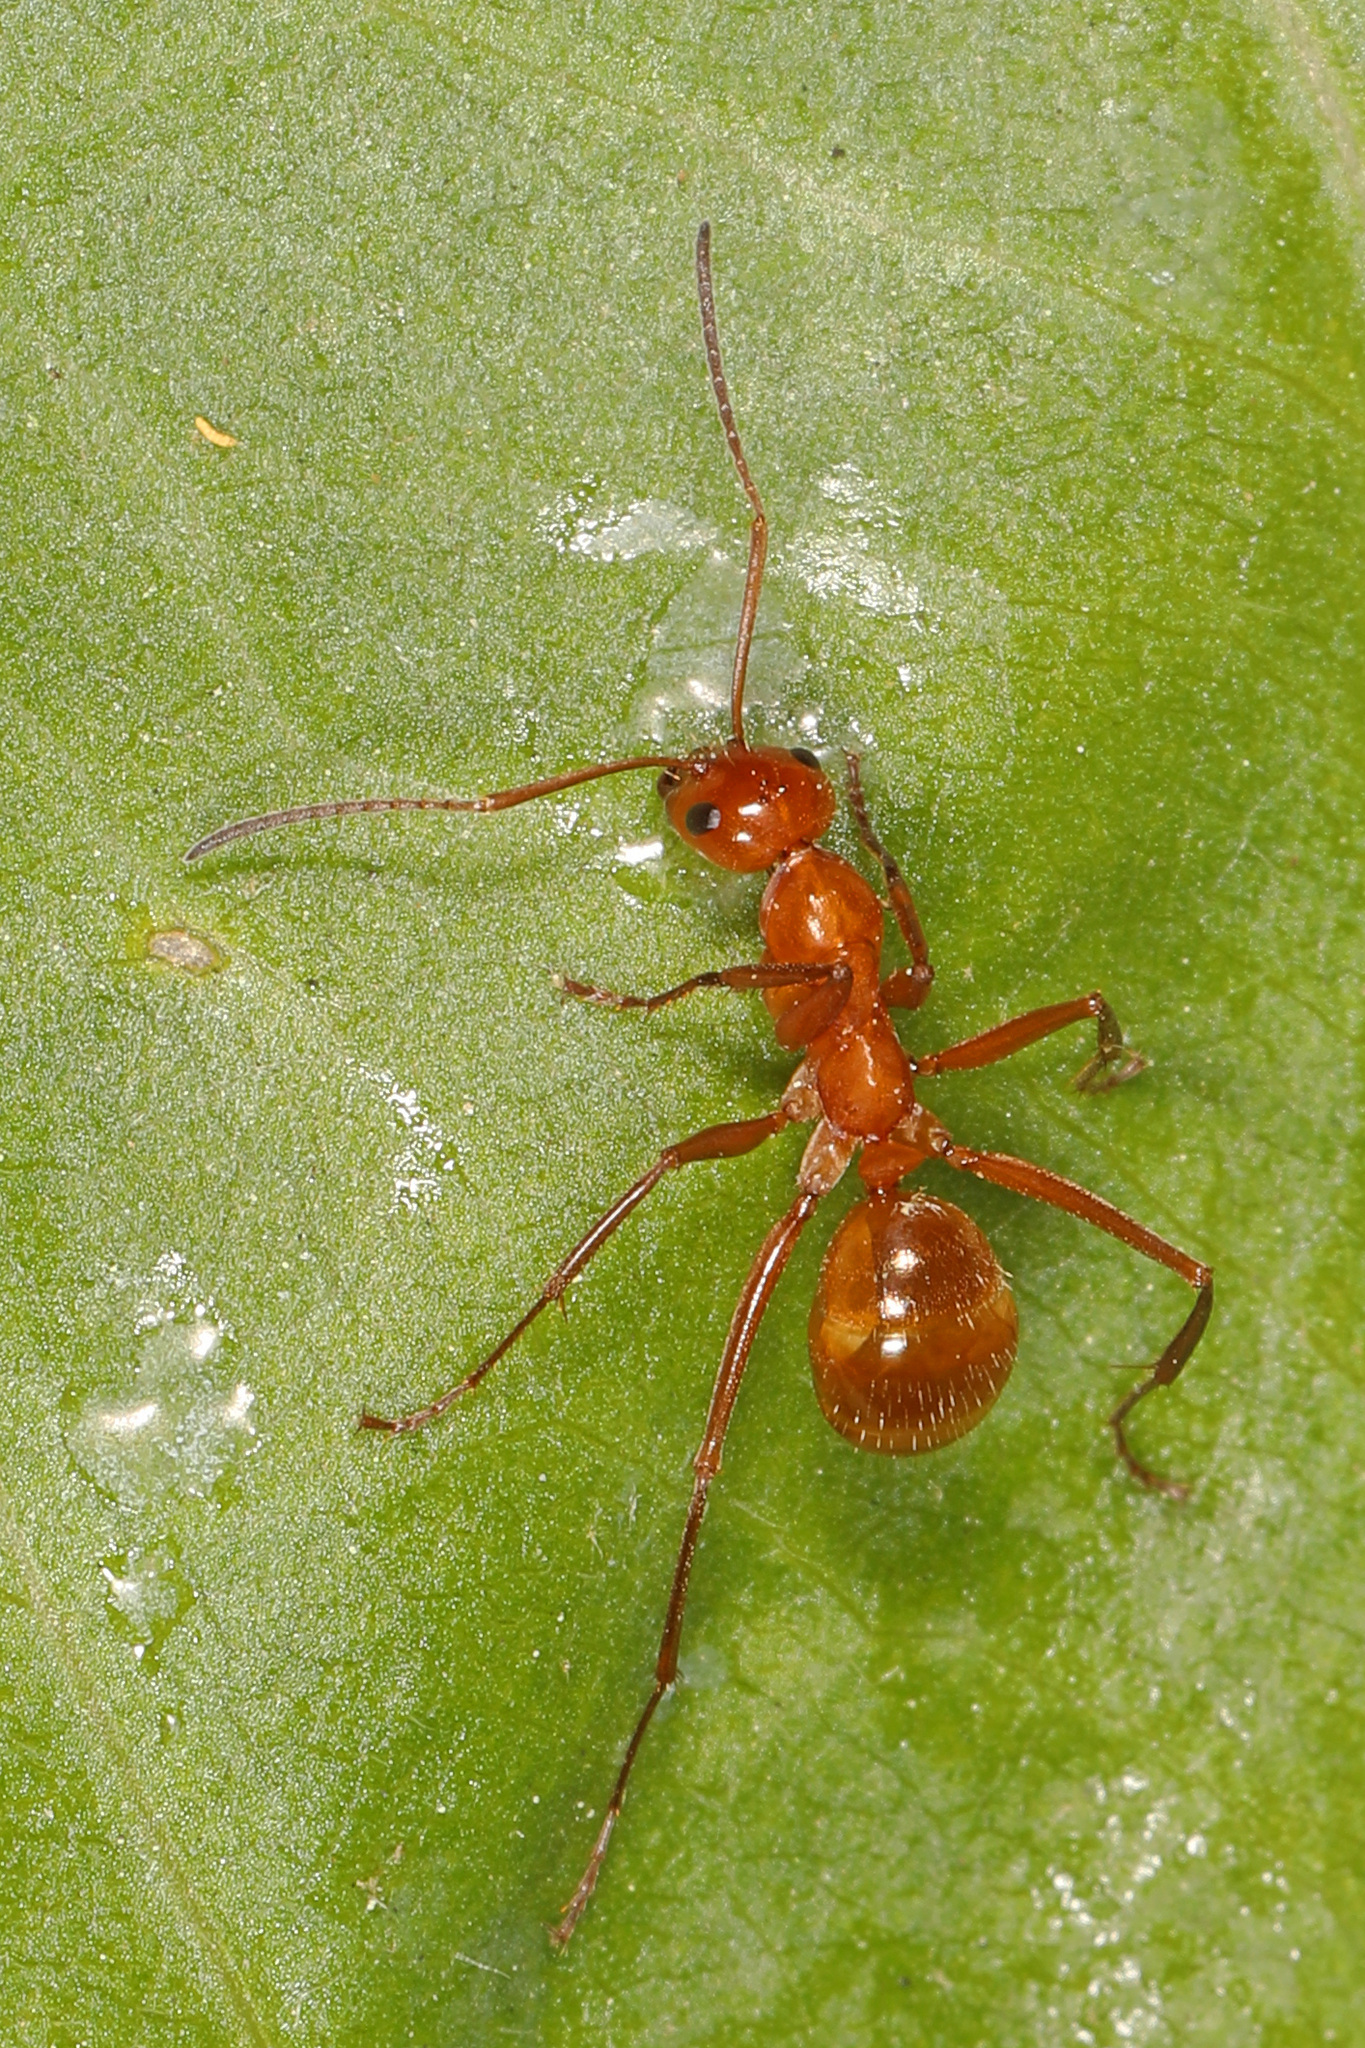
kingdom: Animalia
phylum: Arthropoda
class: Insecta
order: Hymenoptera
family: Formicidae
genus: Formica
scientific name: Formica pallidefulva
